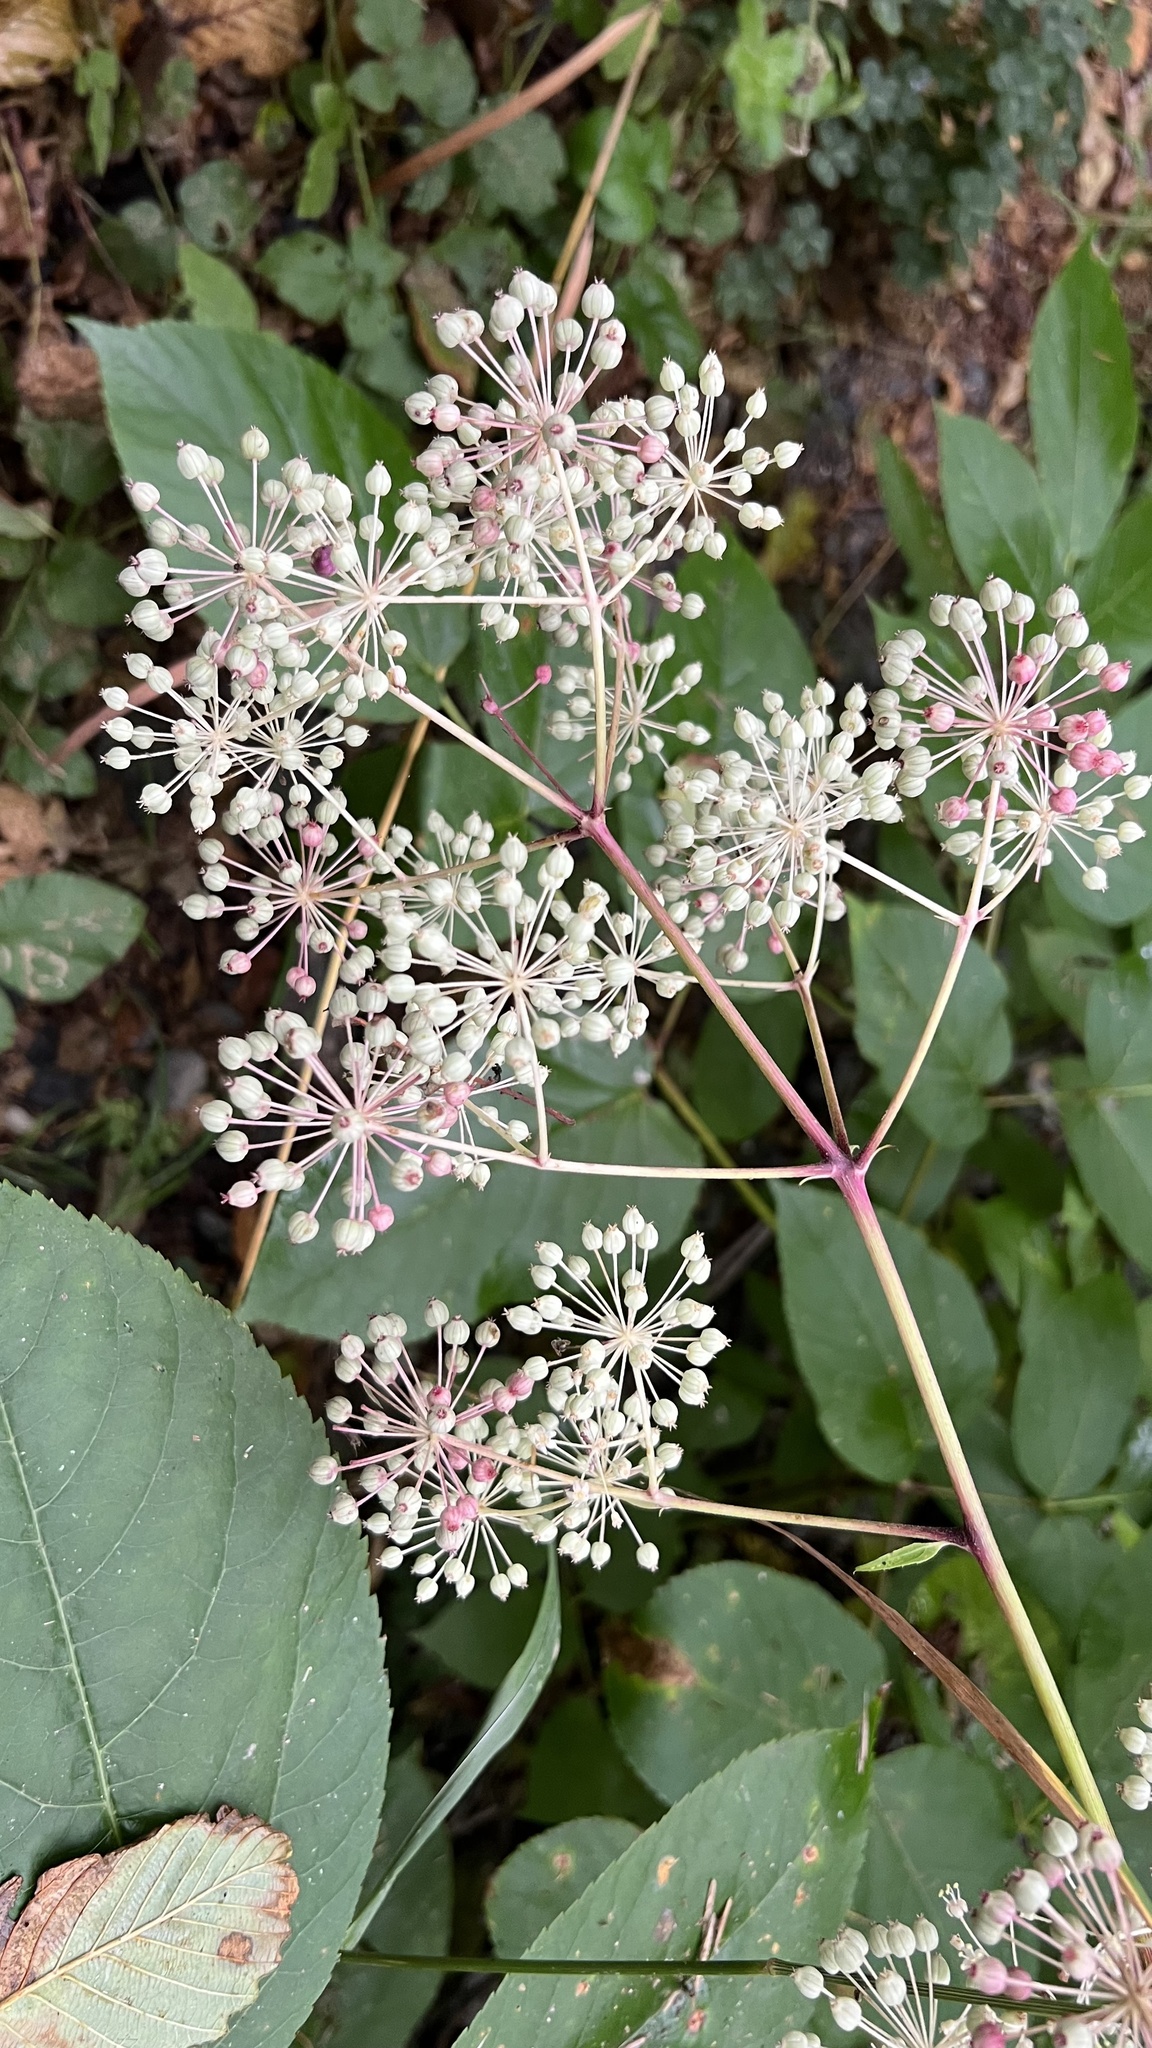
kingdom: Plantae
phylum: Tracheophyta
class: Magnoliopsida
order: Apiales
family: Araliaceae
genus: Aralia
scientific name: Aralia californica
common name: California-ginseng
